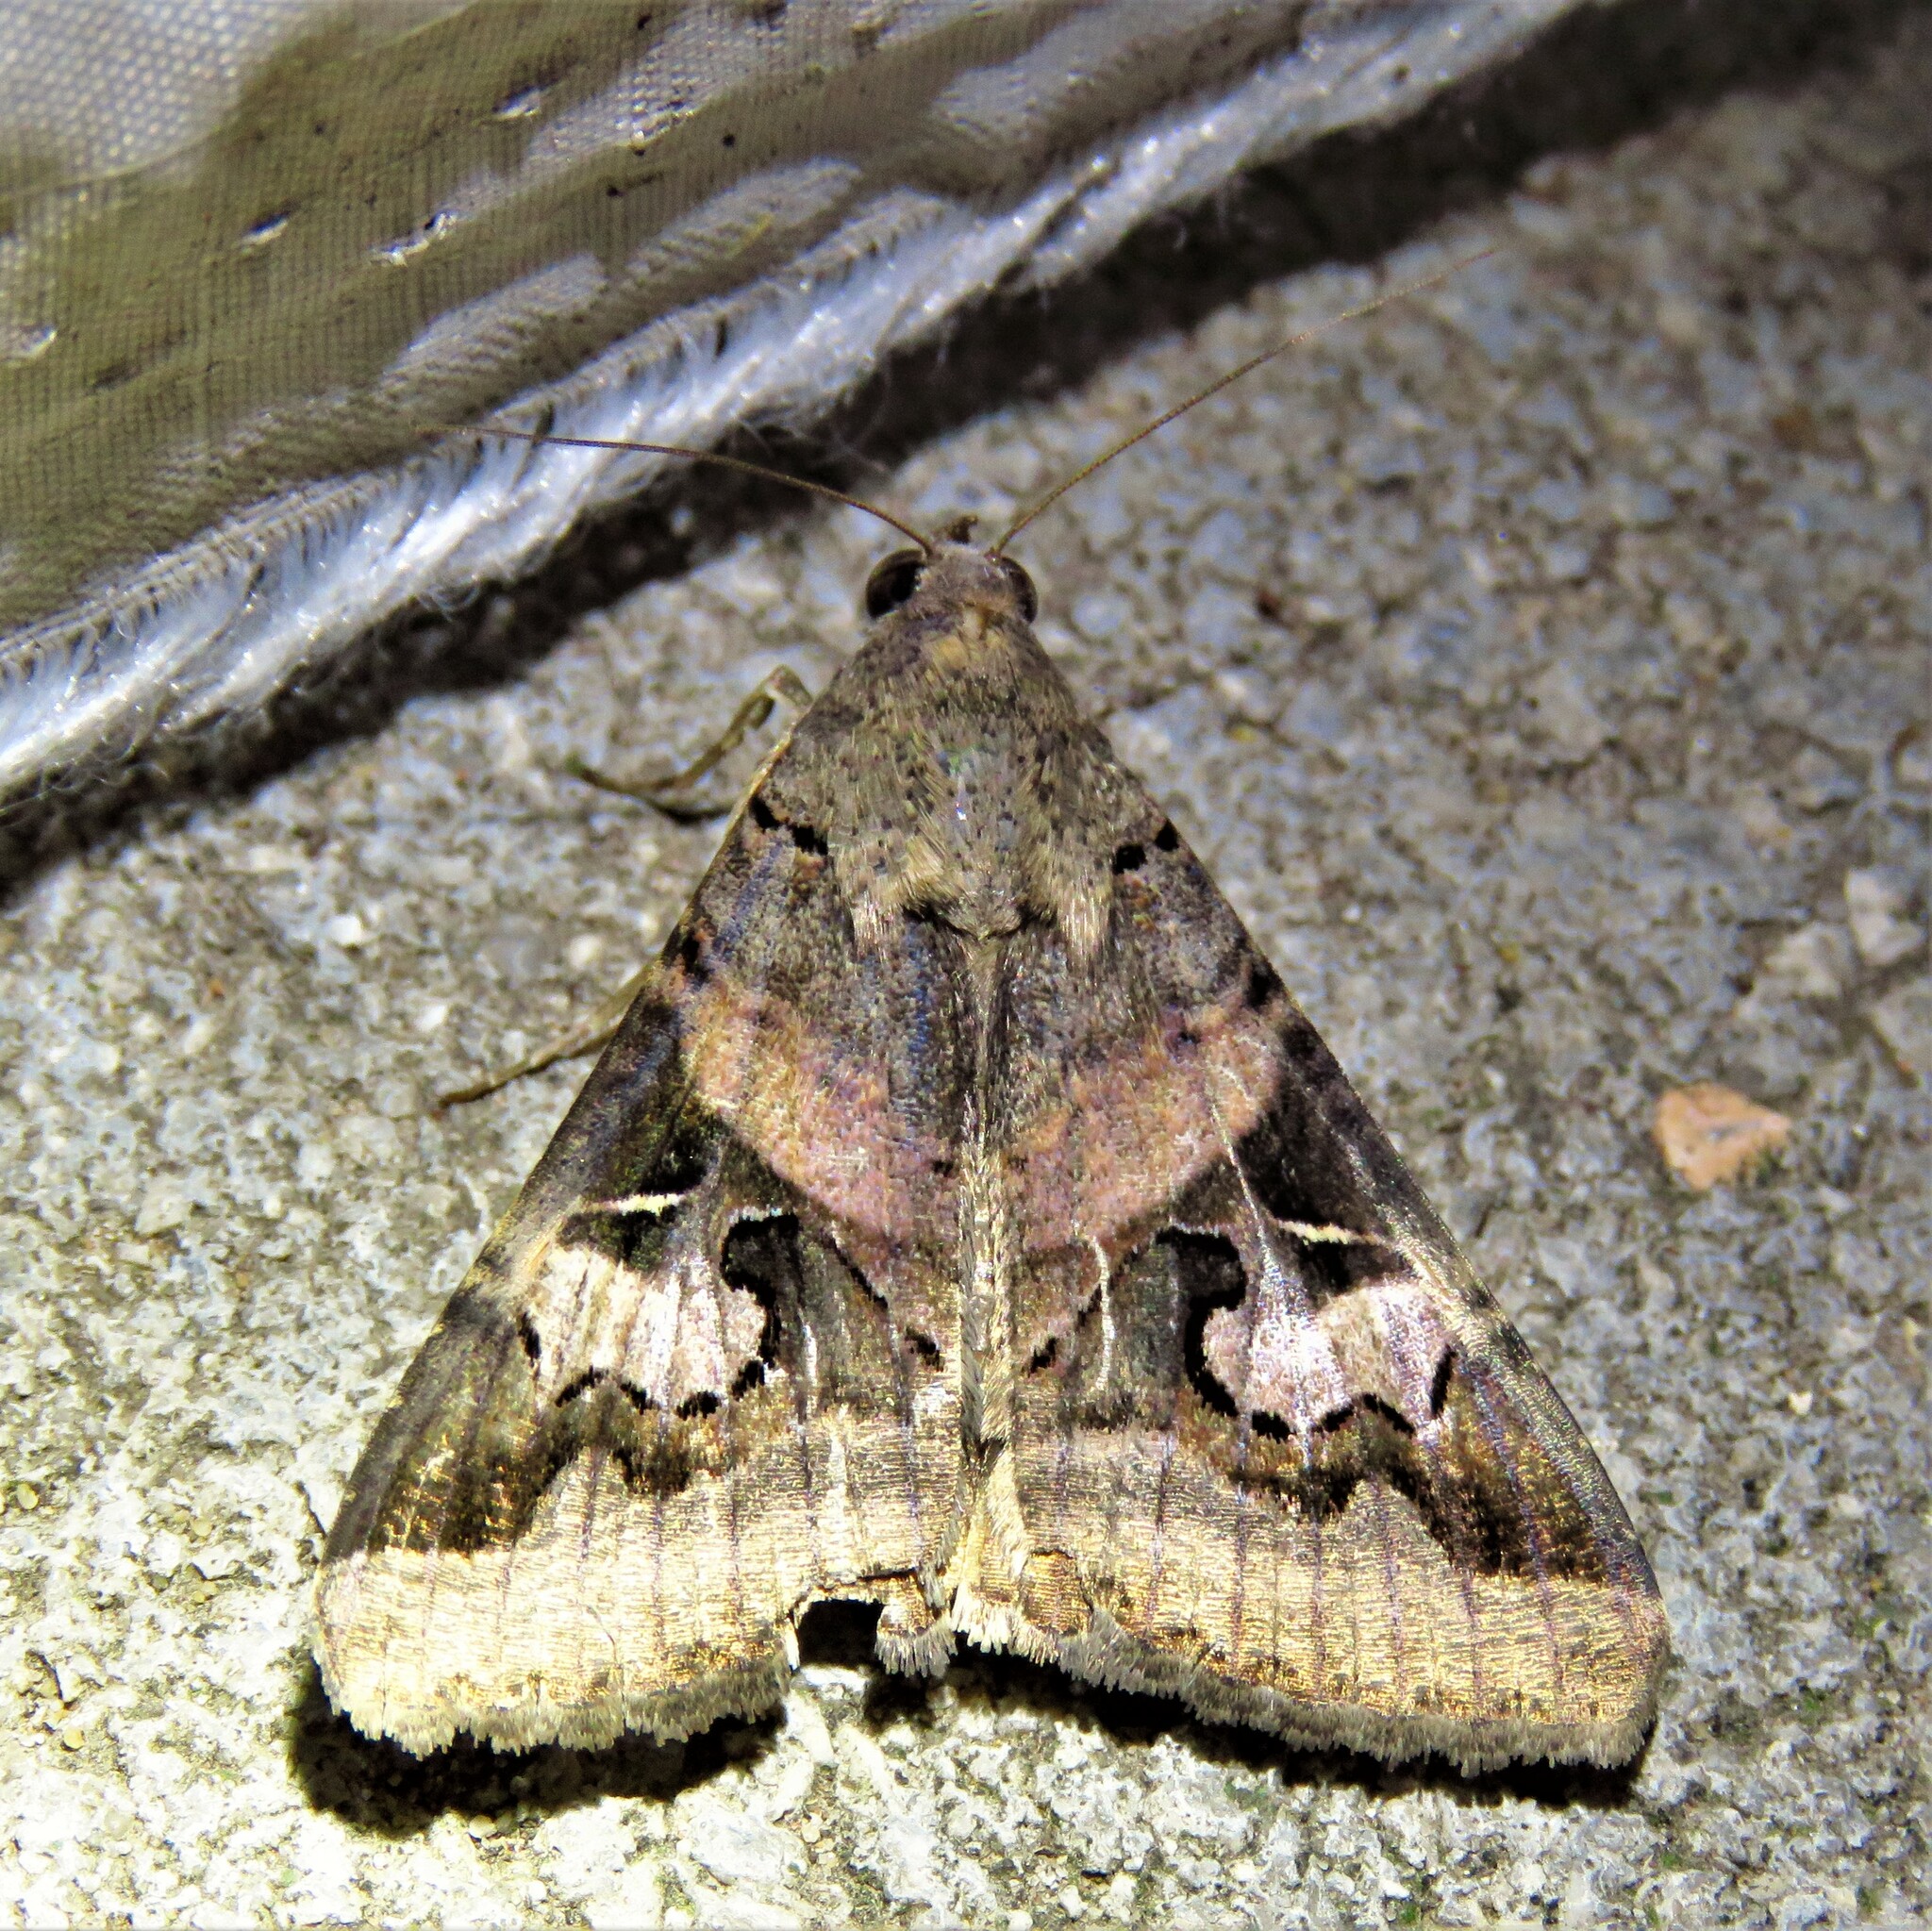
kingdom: Animalia
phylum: Arthropoda
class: Insecta
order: Lepidoptera
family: Erebidae
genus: Melipotis
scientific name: Melipotis indomita
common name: Moth
